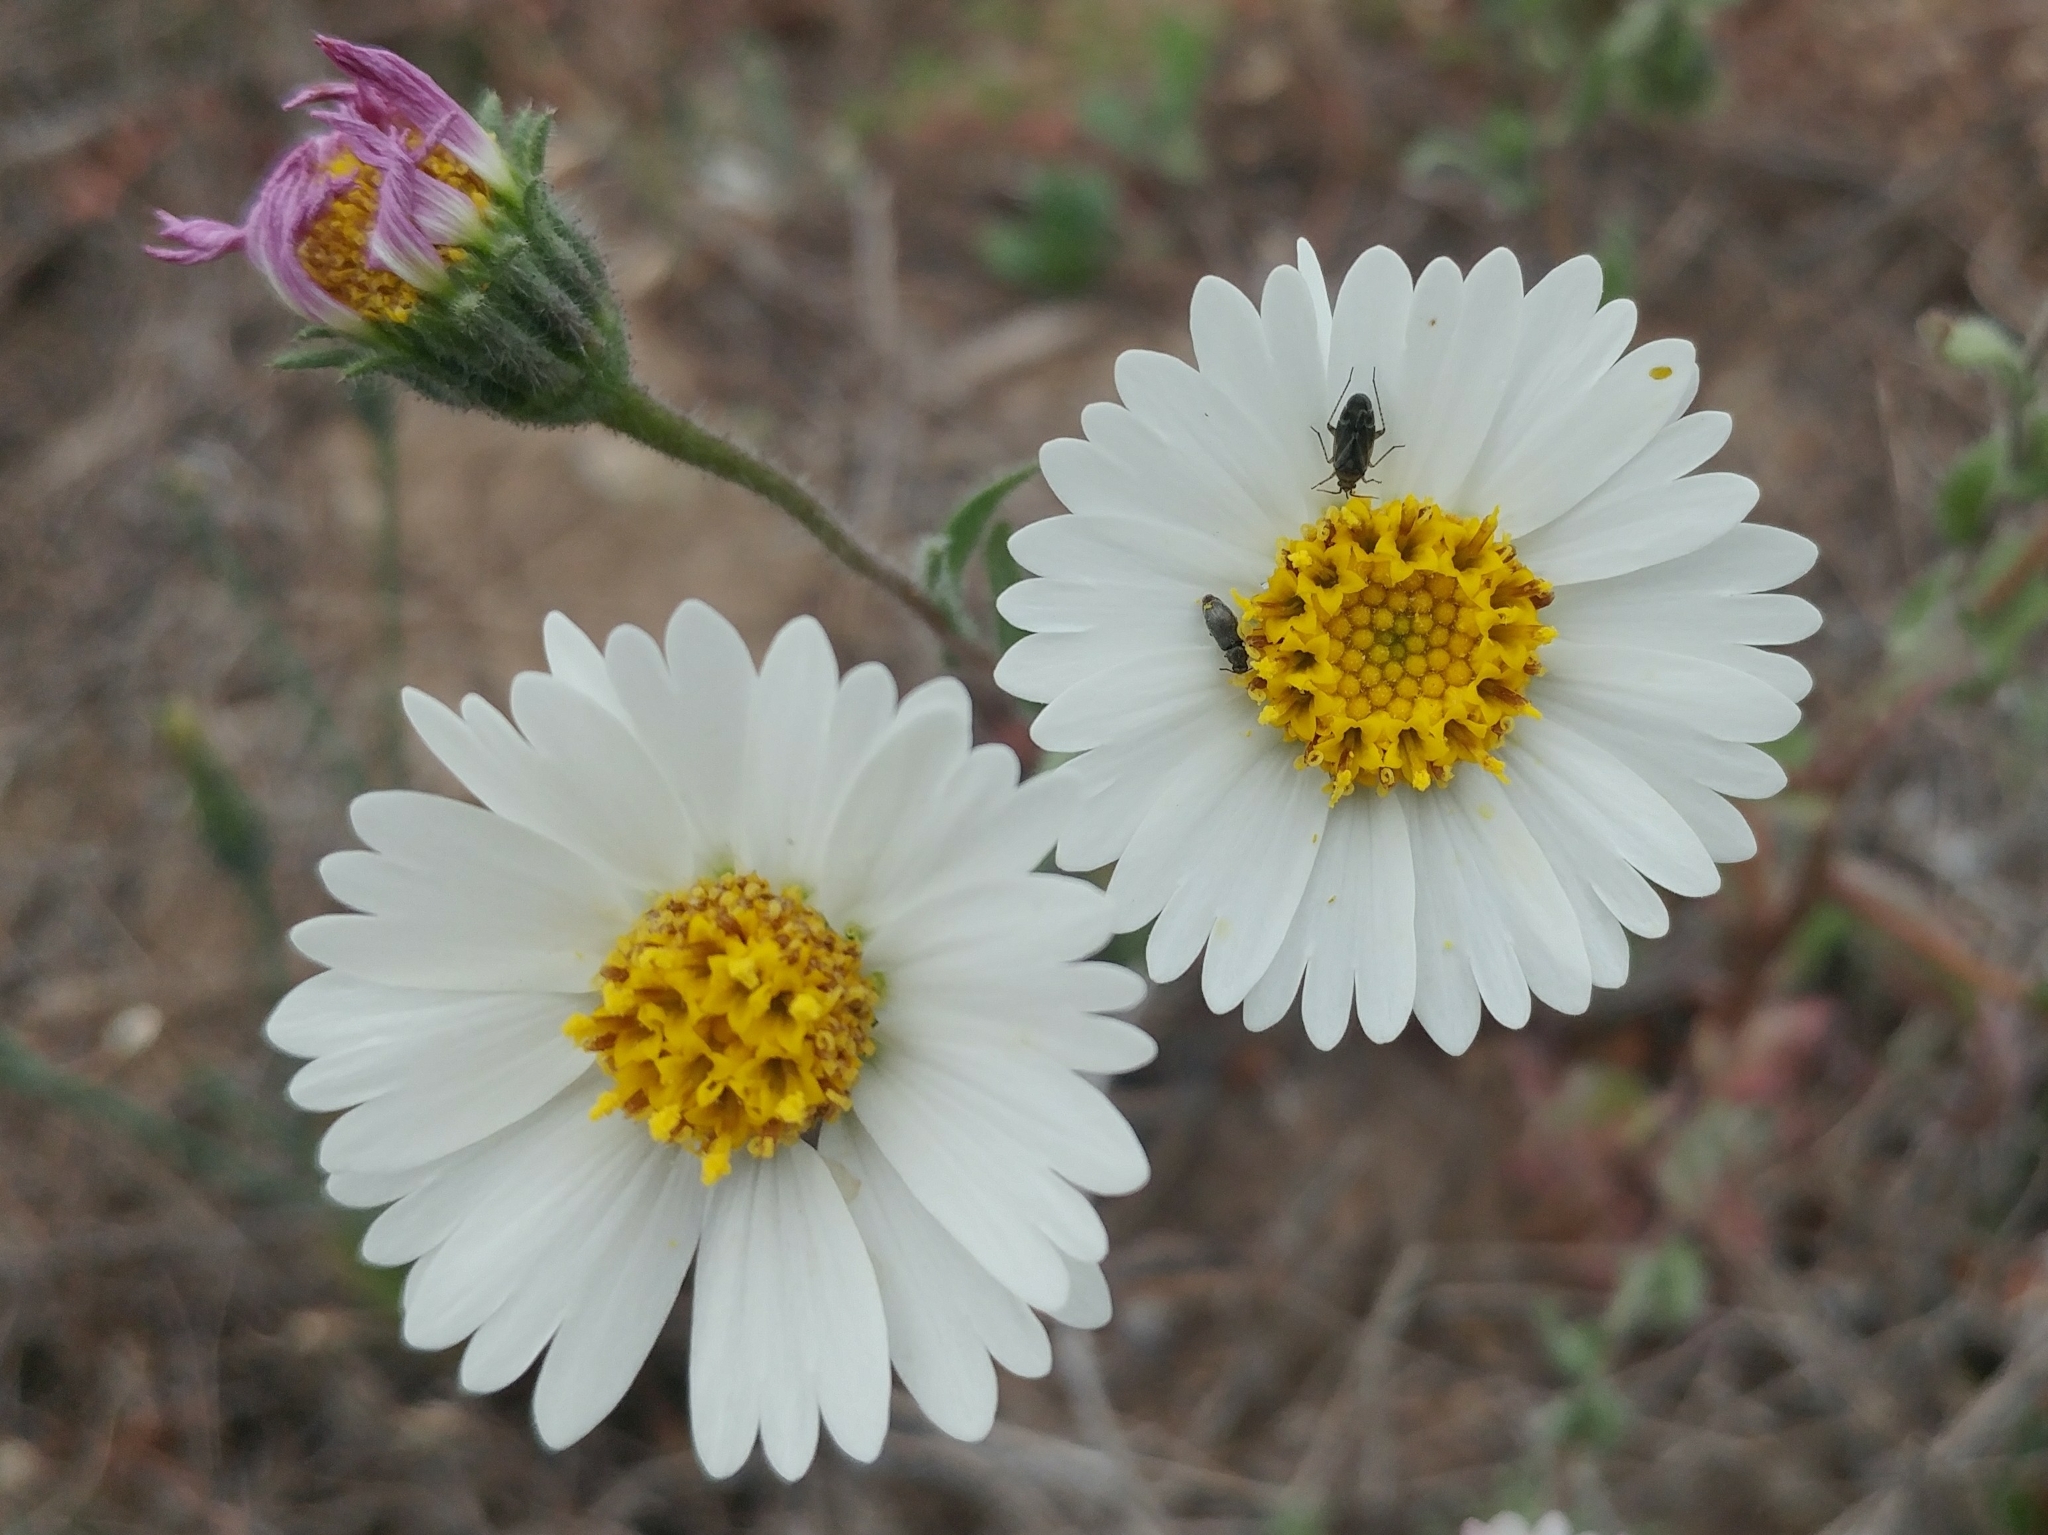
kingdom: Plantae
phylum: Tracheophyta
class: Magnoliopsida
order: Asterales
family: Asteraceae
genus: Layia
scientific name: Layia erubescens
